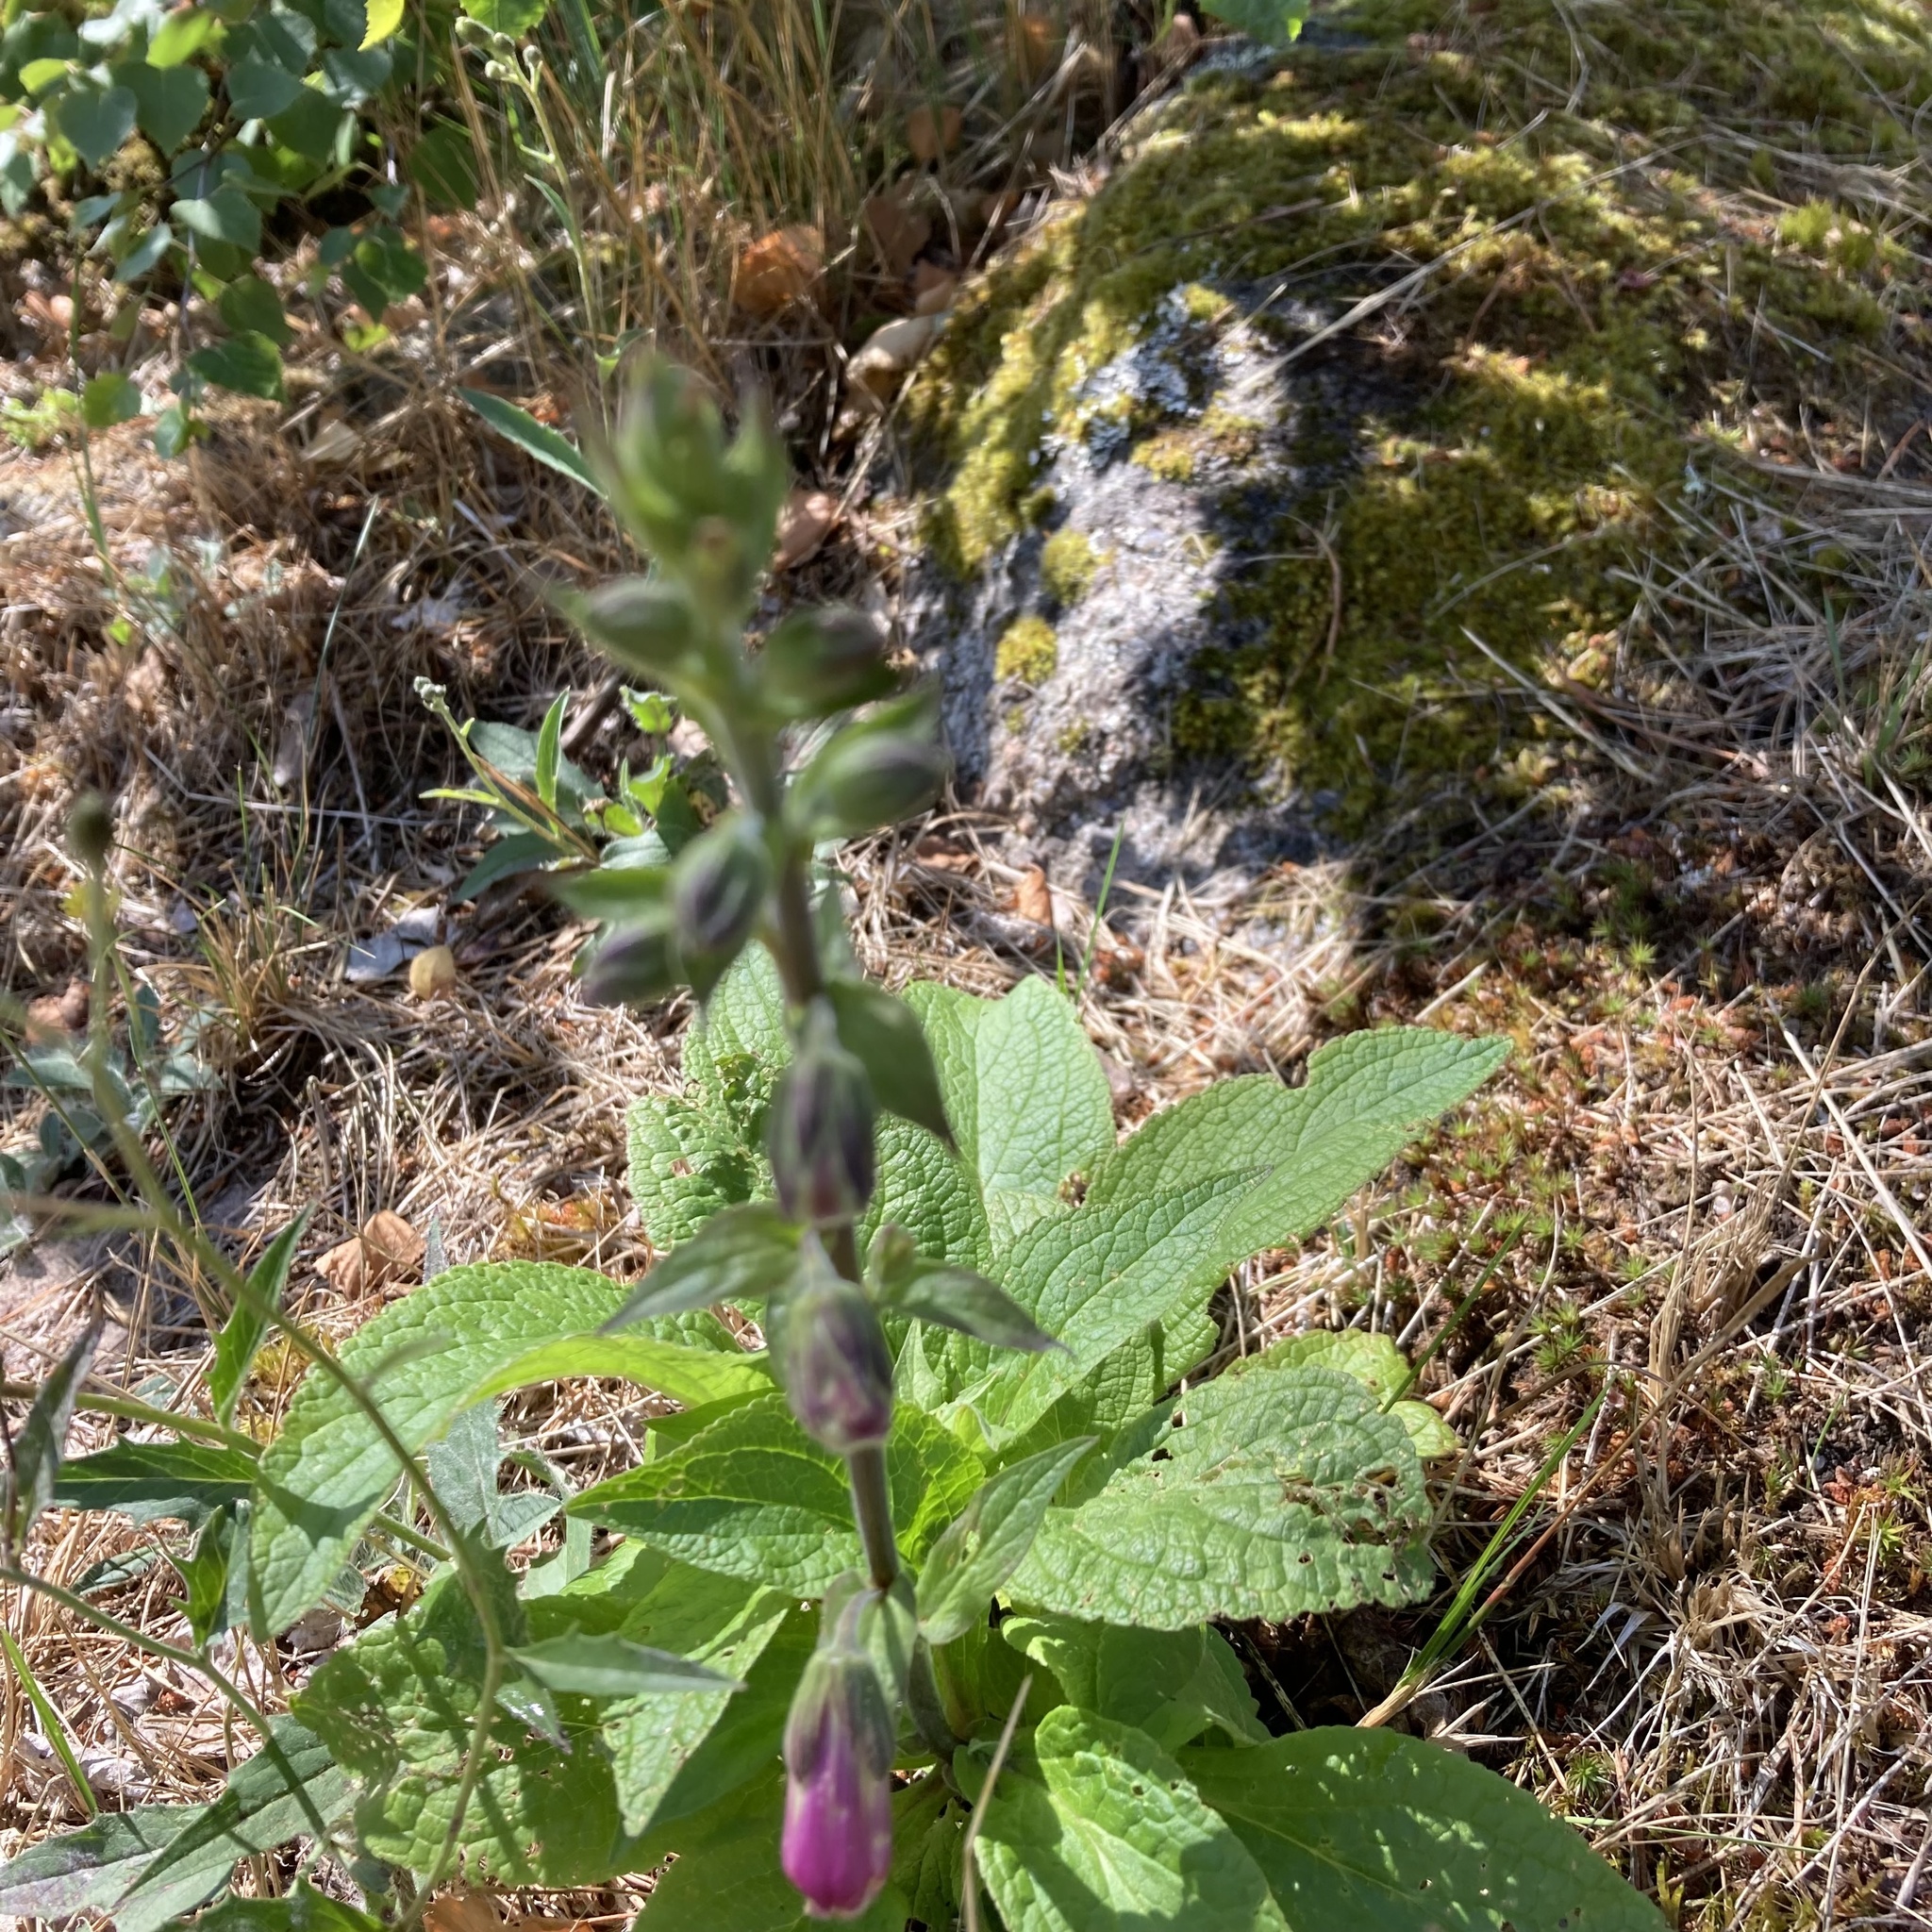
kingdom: Plantae
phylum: Tracheophyta
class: Magnoliopsida
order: Lamiales
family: Plantaginaceae
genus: Digitalis
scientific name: Digitalis purpurea
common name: Foxglove
